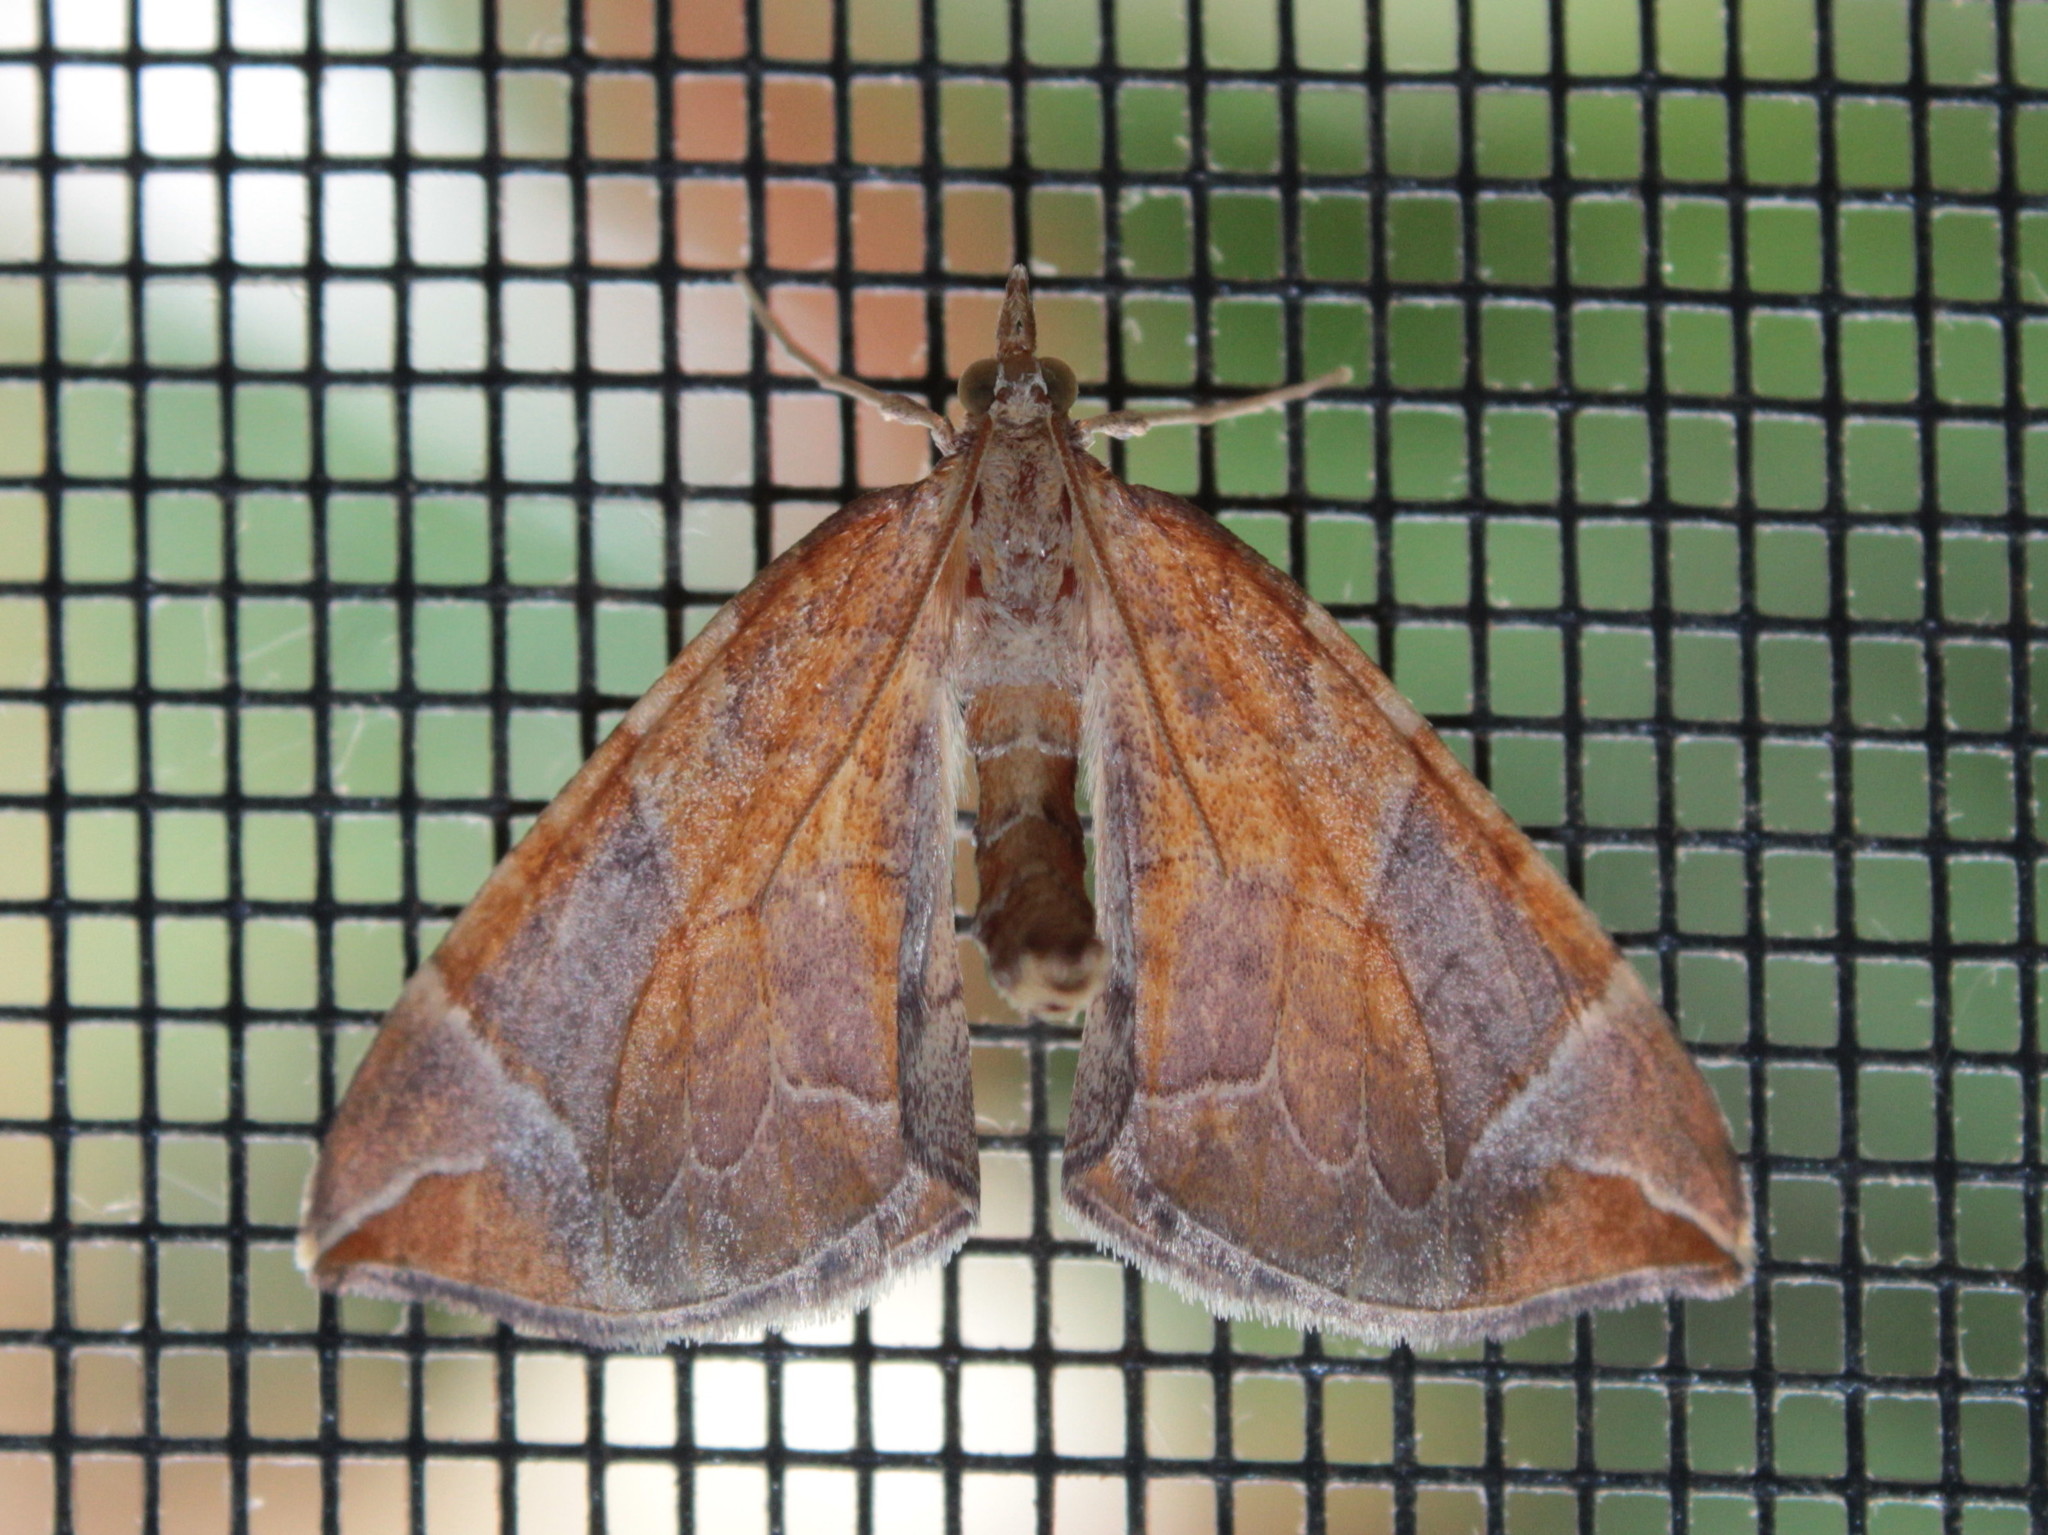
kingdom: Animalia
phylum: Arthropoda
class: Insecta
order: Lepidoptera
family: Geometridae
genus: Eulithis
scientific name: Eulithis testata
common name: Chevron
